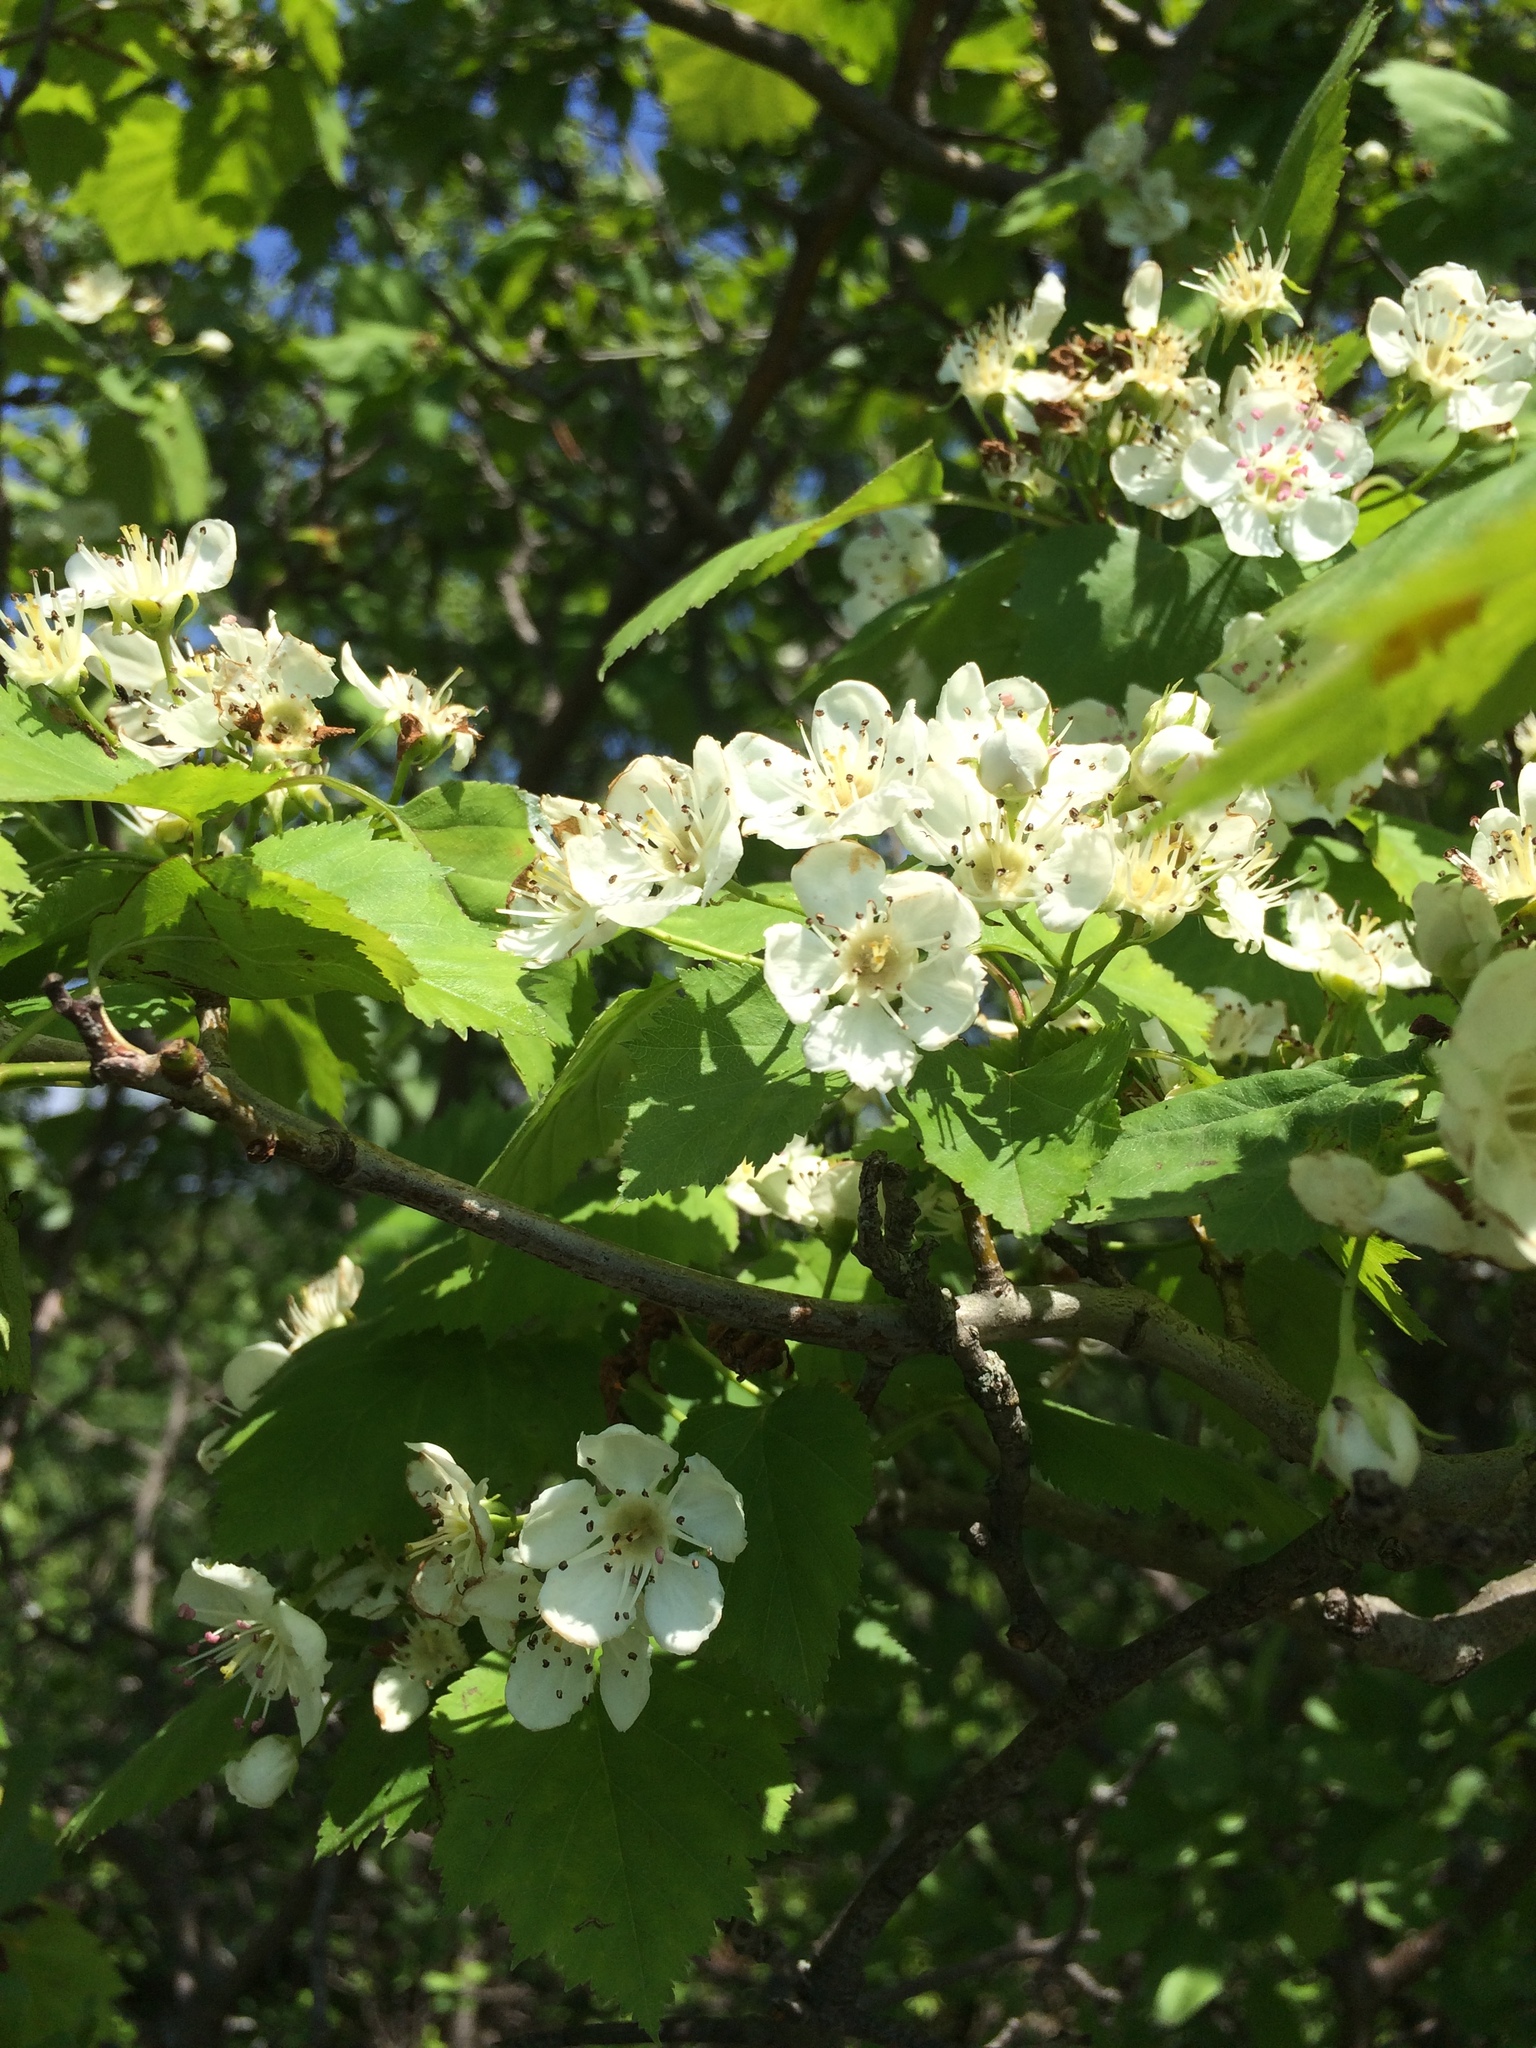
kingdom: Plantae
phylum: Tracheophyta
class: Magnoliopsida
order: Rosales
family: Rosaceae
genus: Crataegus
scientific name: Crataegus schuettei
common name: Schuette's hawthorn
